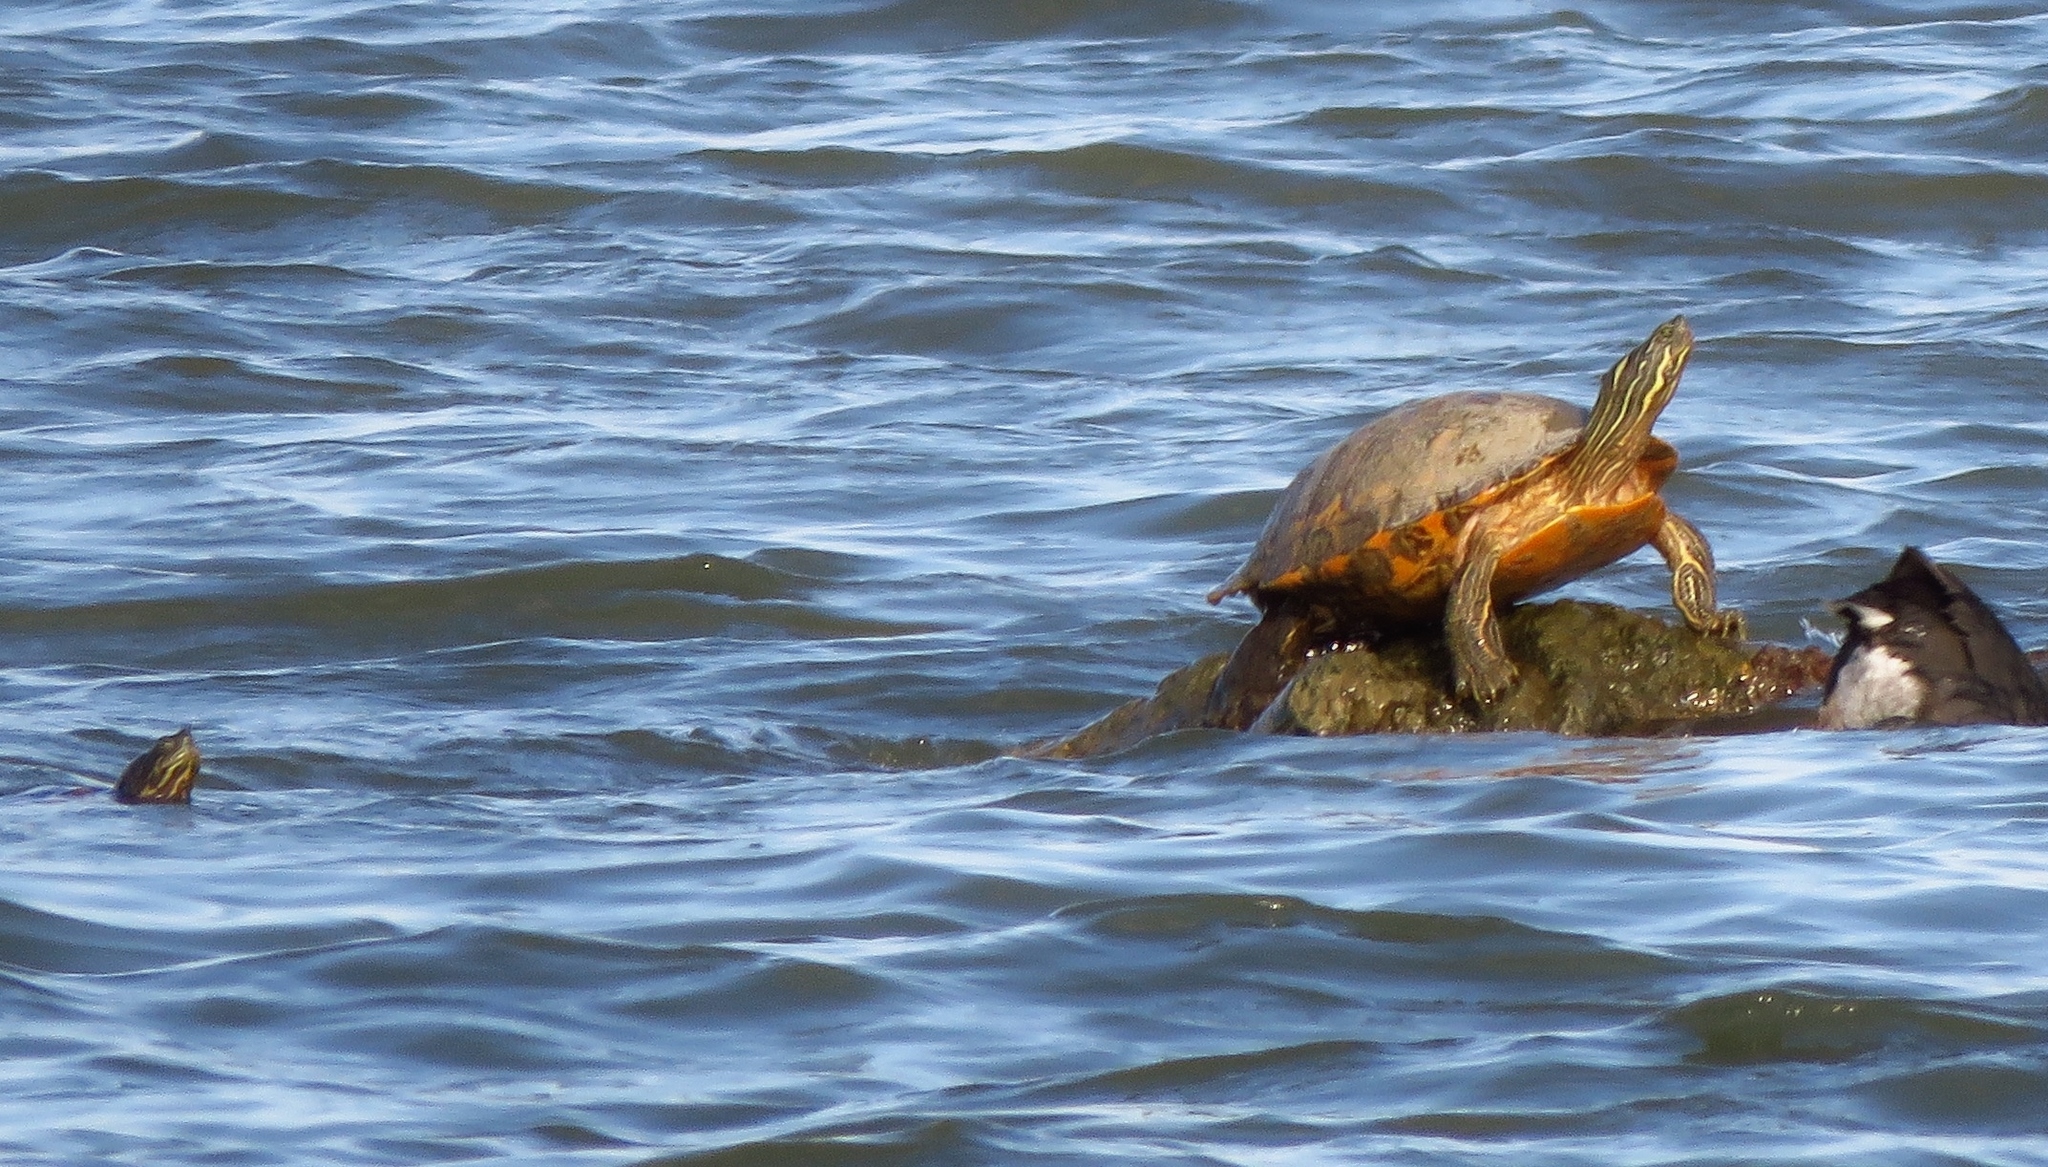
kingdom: Animalia
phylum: Chordata
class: Testudines
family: Emydidae
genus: Trachemys
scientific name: Trachemys scripta
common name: Slider
